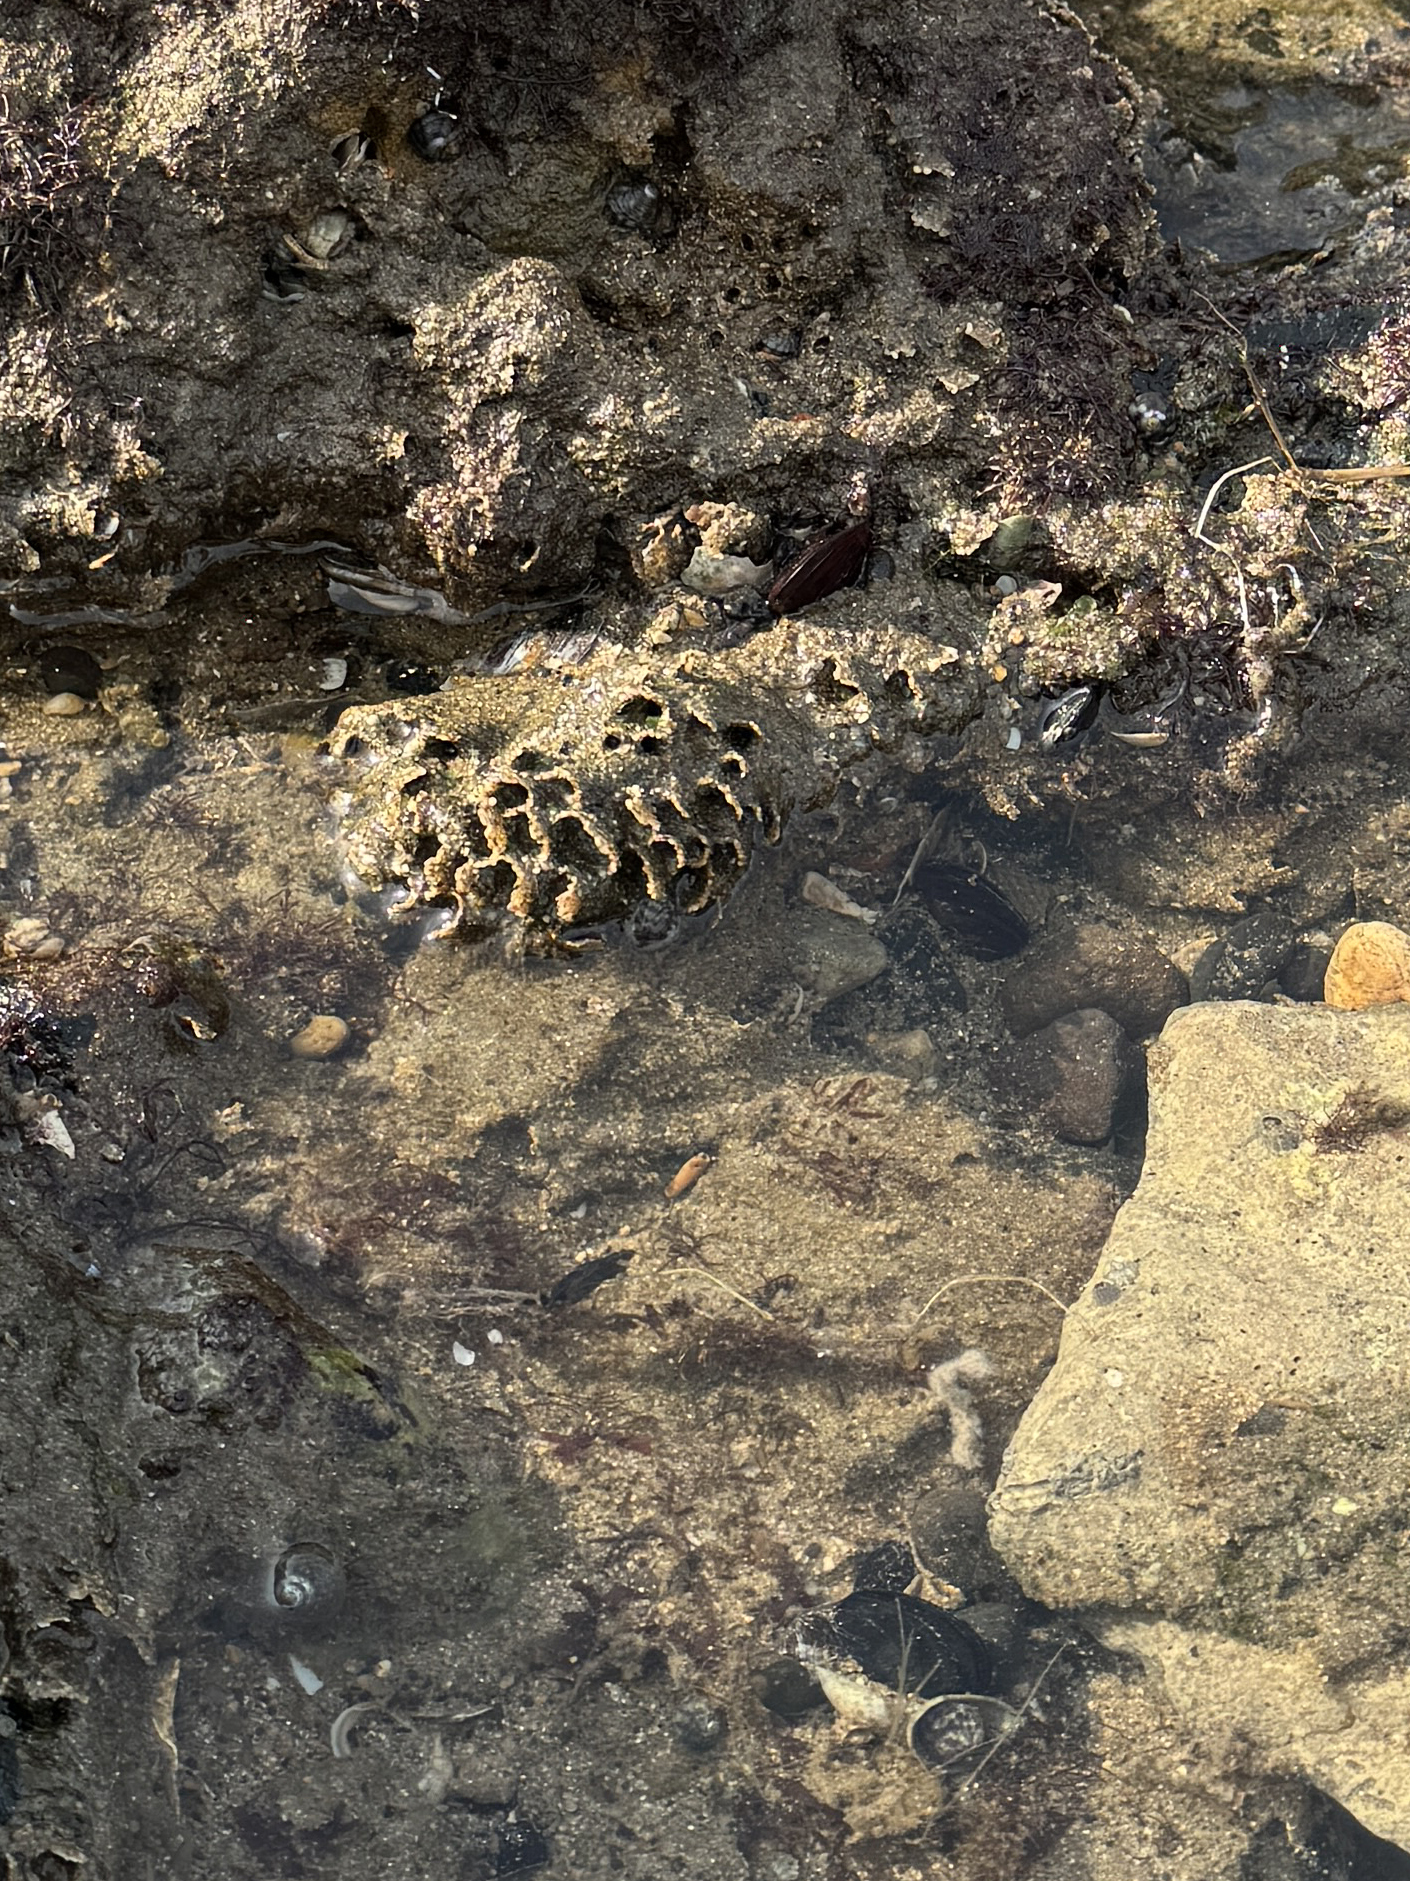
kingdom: Animalia
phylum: Annelida
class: Polychaeta
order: Sabellida
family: Sabellariidae
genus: Sabellaria
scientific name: Sabellaria alveolata
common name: Honeycomb worm
